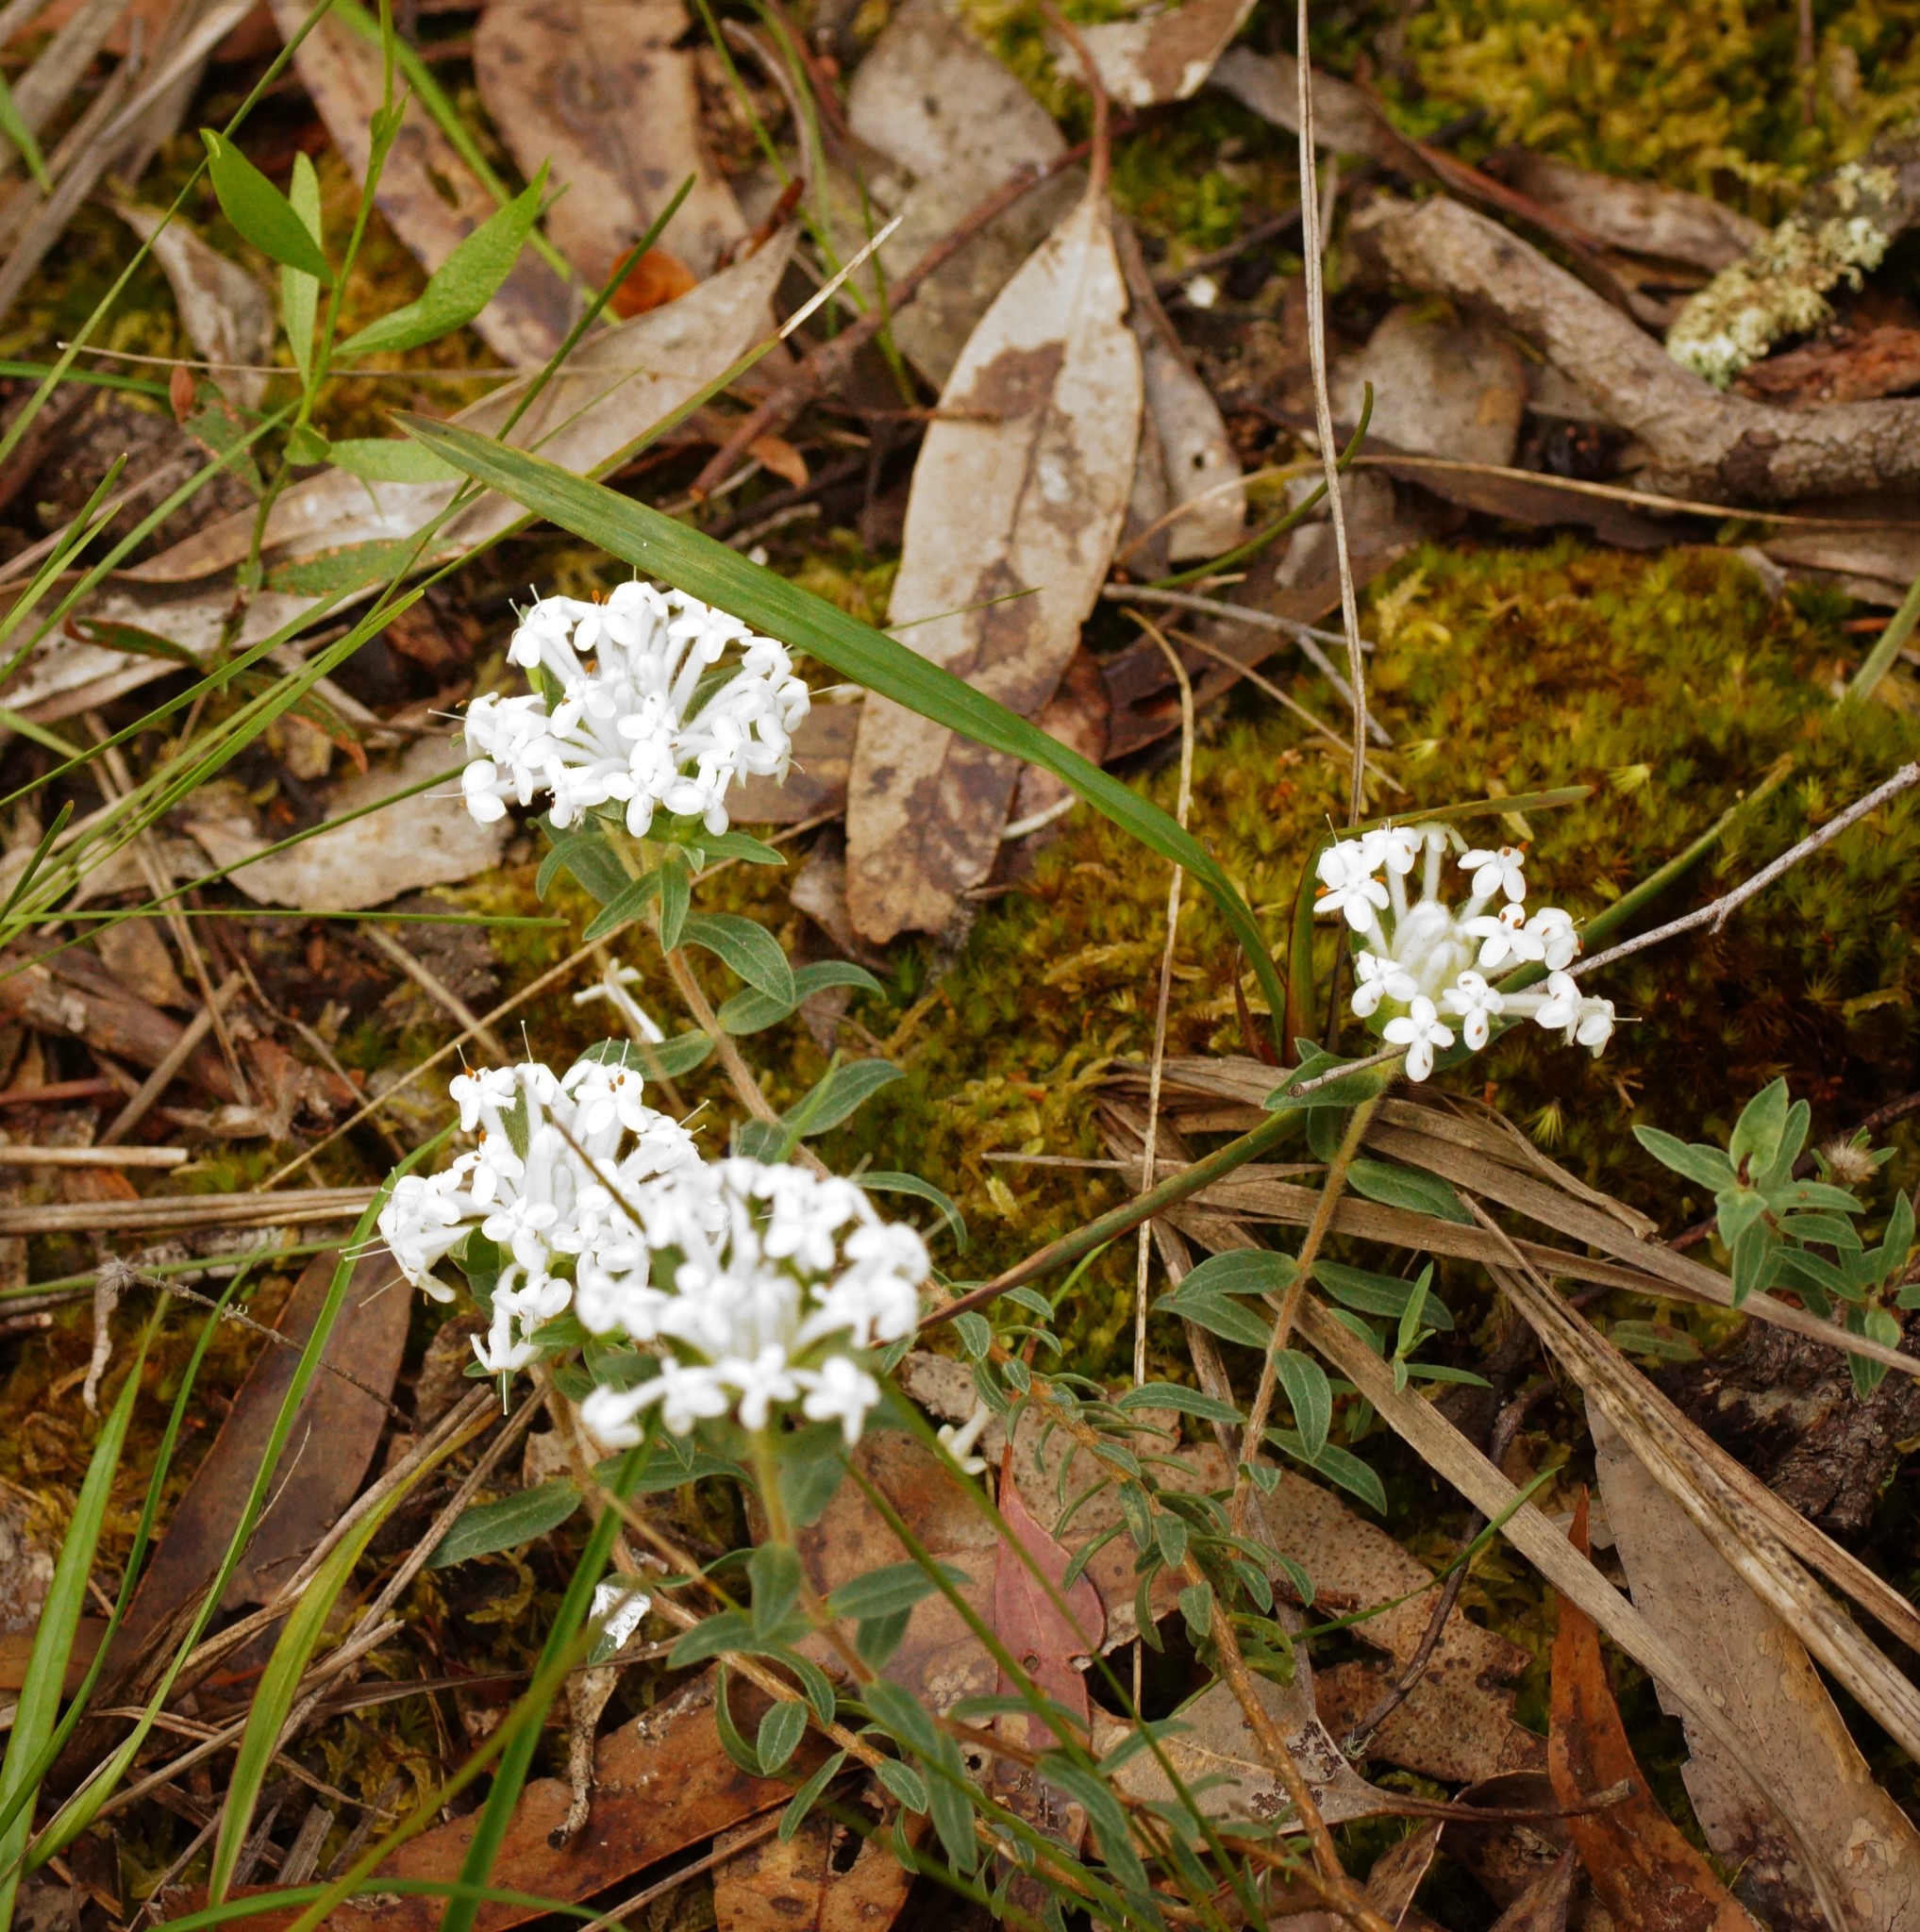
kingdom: Plantae
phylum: Tracheophyta
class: Magnoliopsida
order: Malvales
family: Thymelaeaceae
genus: Pimelea
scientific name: Pimelea humilis
